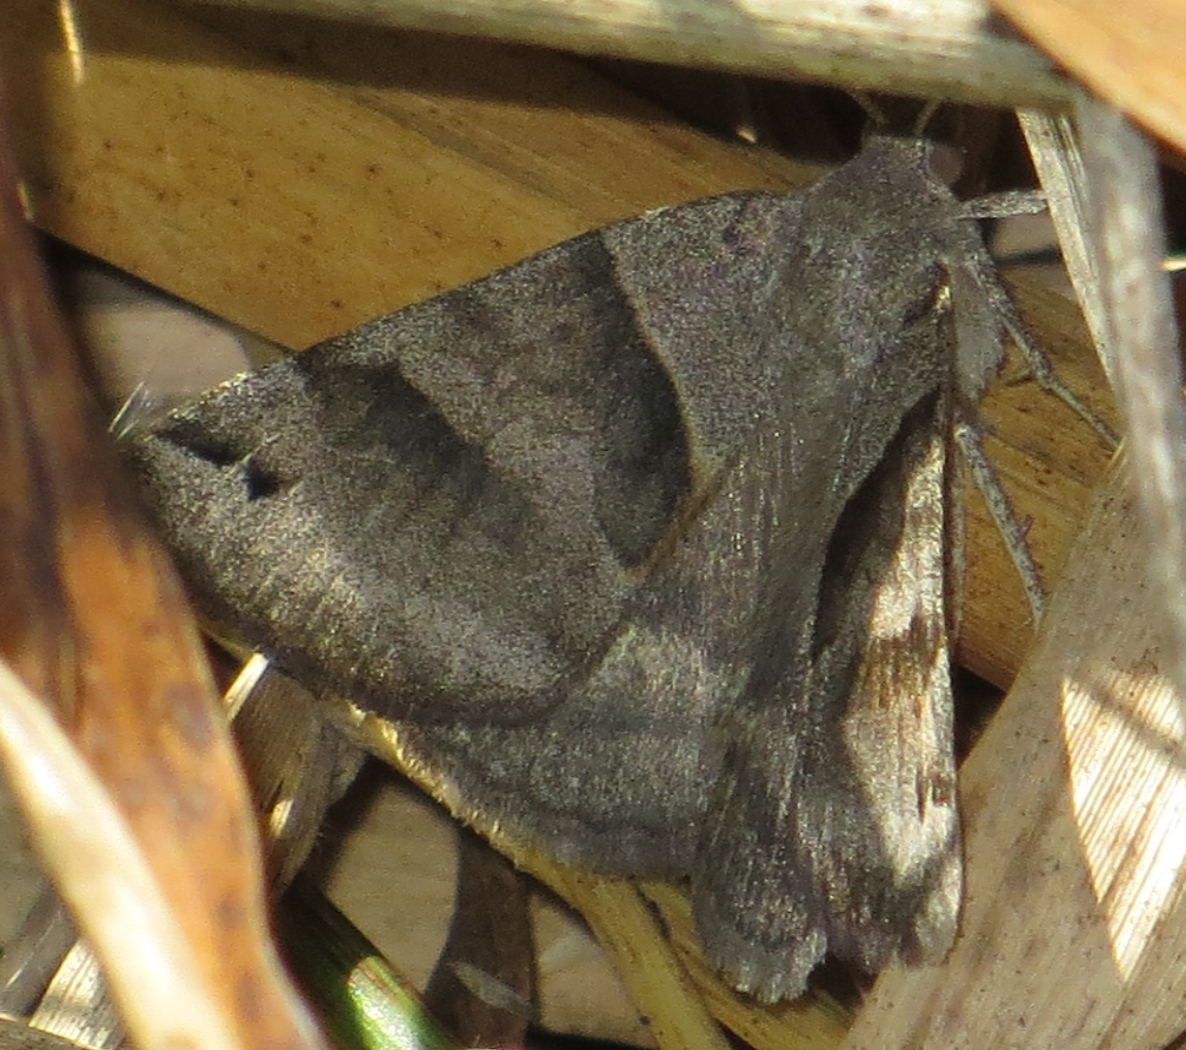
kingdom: Animalia
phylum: Arthropoda
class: Insecta
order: Lepidoptera
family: Erebidae
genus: Caenurgina
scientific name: Caenurgina erechtea
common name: Forage looper moth
